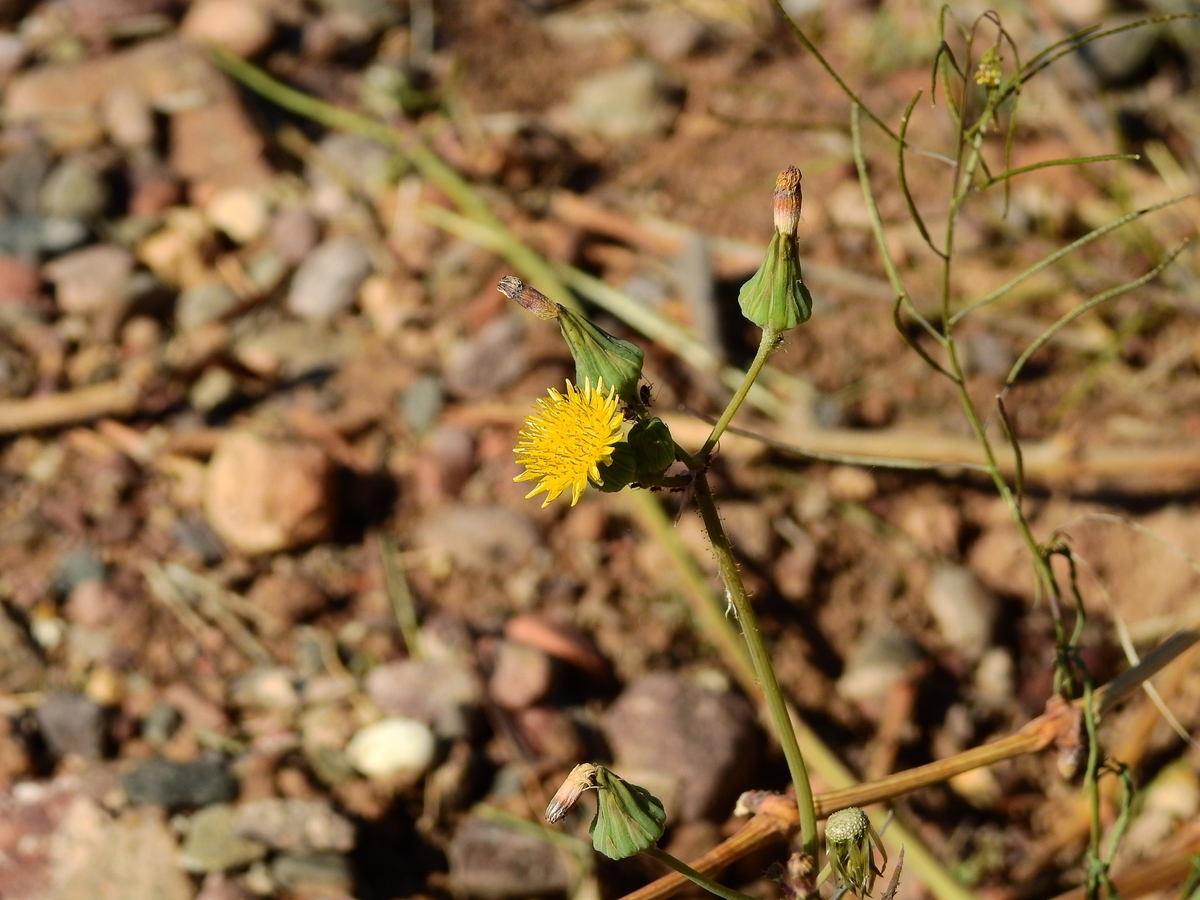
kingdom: Plantae
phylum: Tracheophyta
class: Magnoliopsida
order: Asterales
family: Asteraceae
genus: Sonchus
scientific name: Sonchus oleraceus
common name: Common sowthistle
